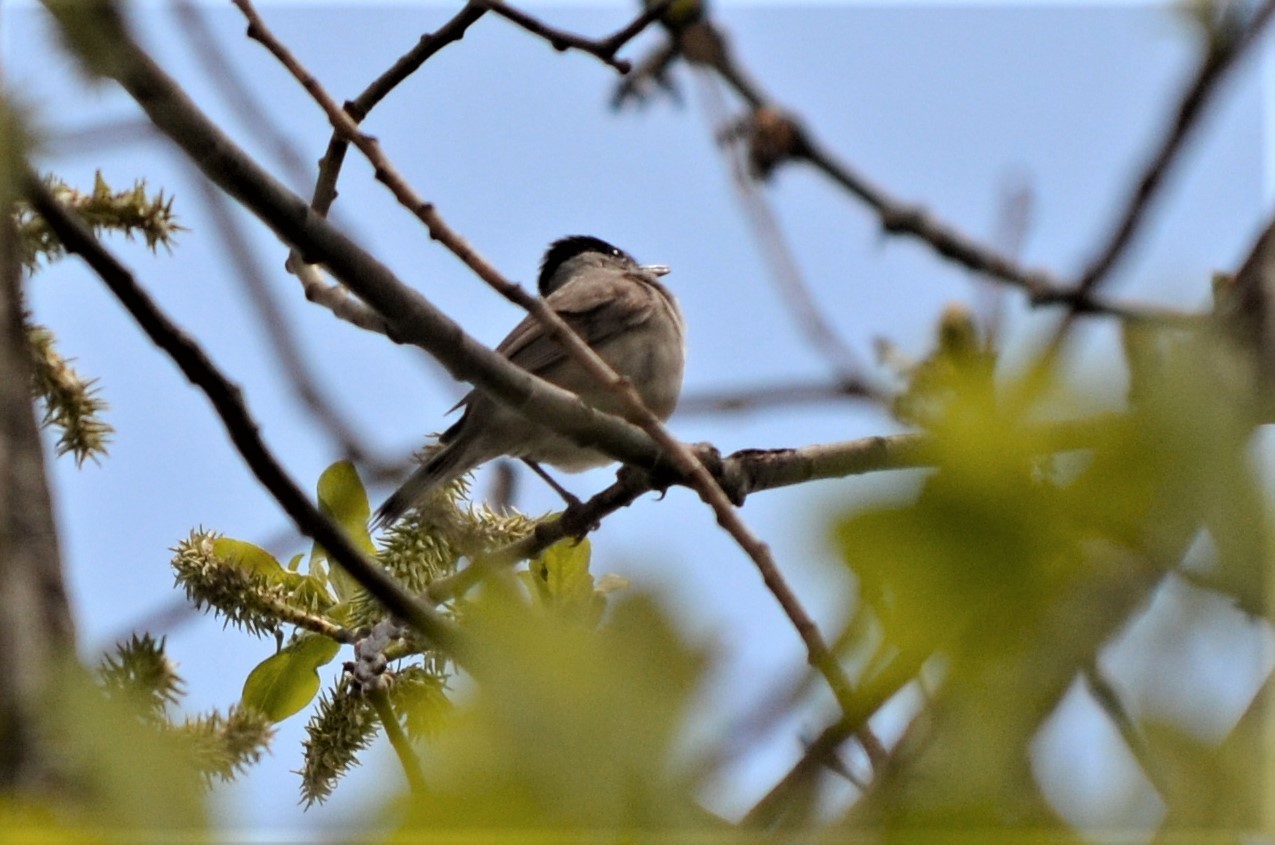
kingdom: Animalia
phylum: Chordata
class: Aves
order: Passeriformes
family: Sylviidae
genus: Sylvia
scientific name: Sylvia atricapilla
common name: Eurasian blackcap
